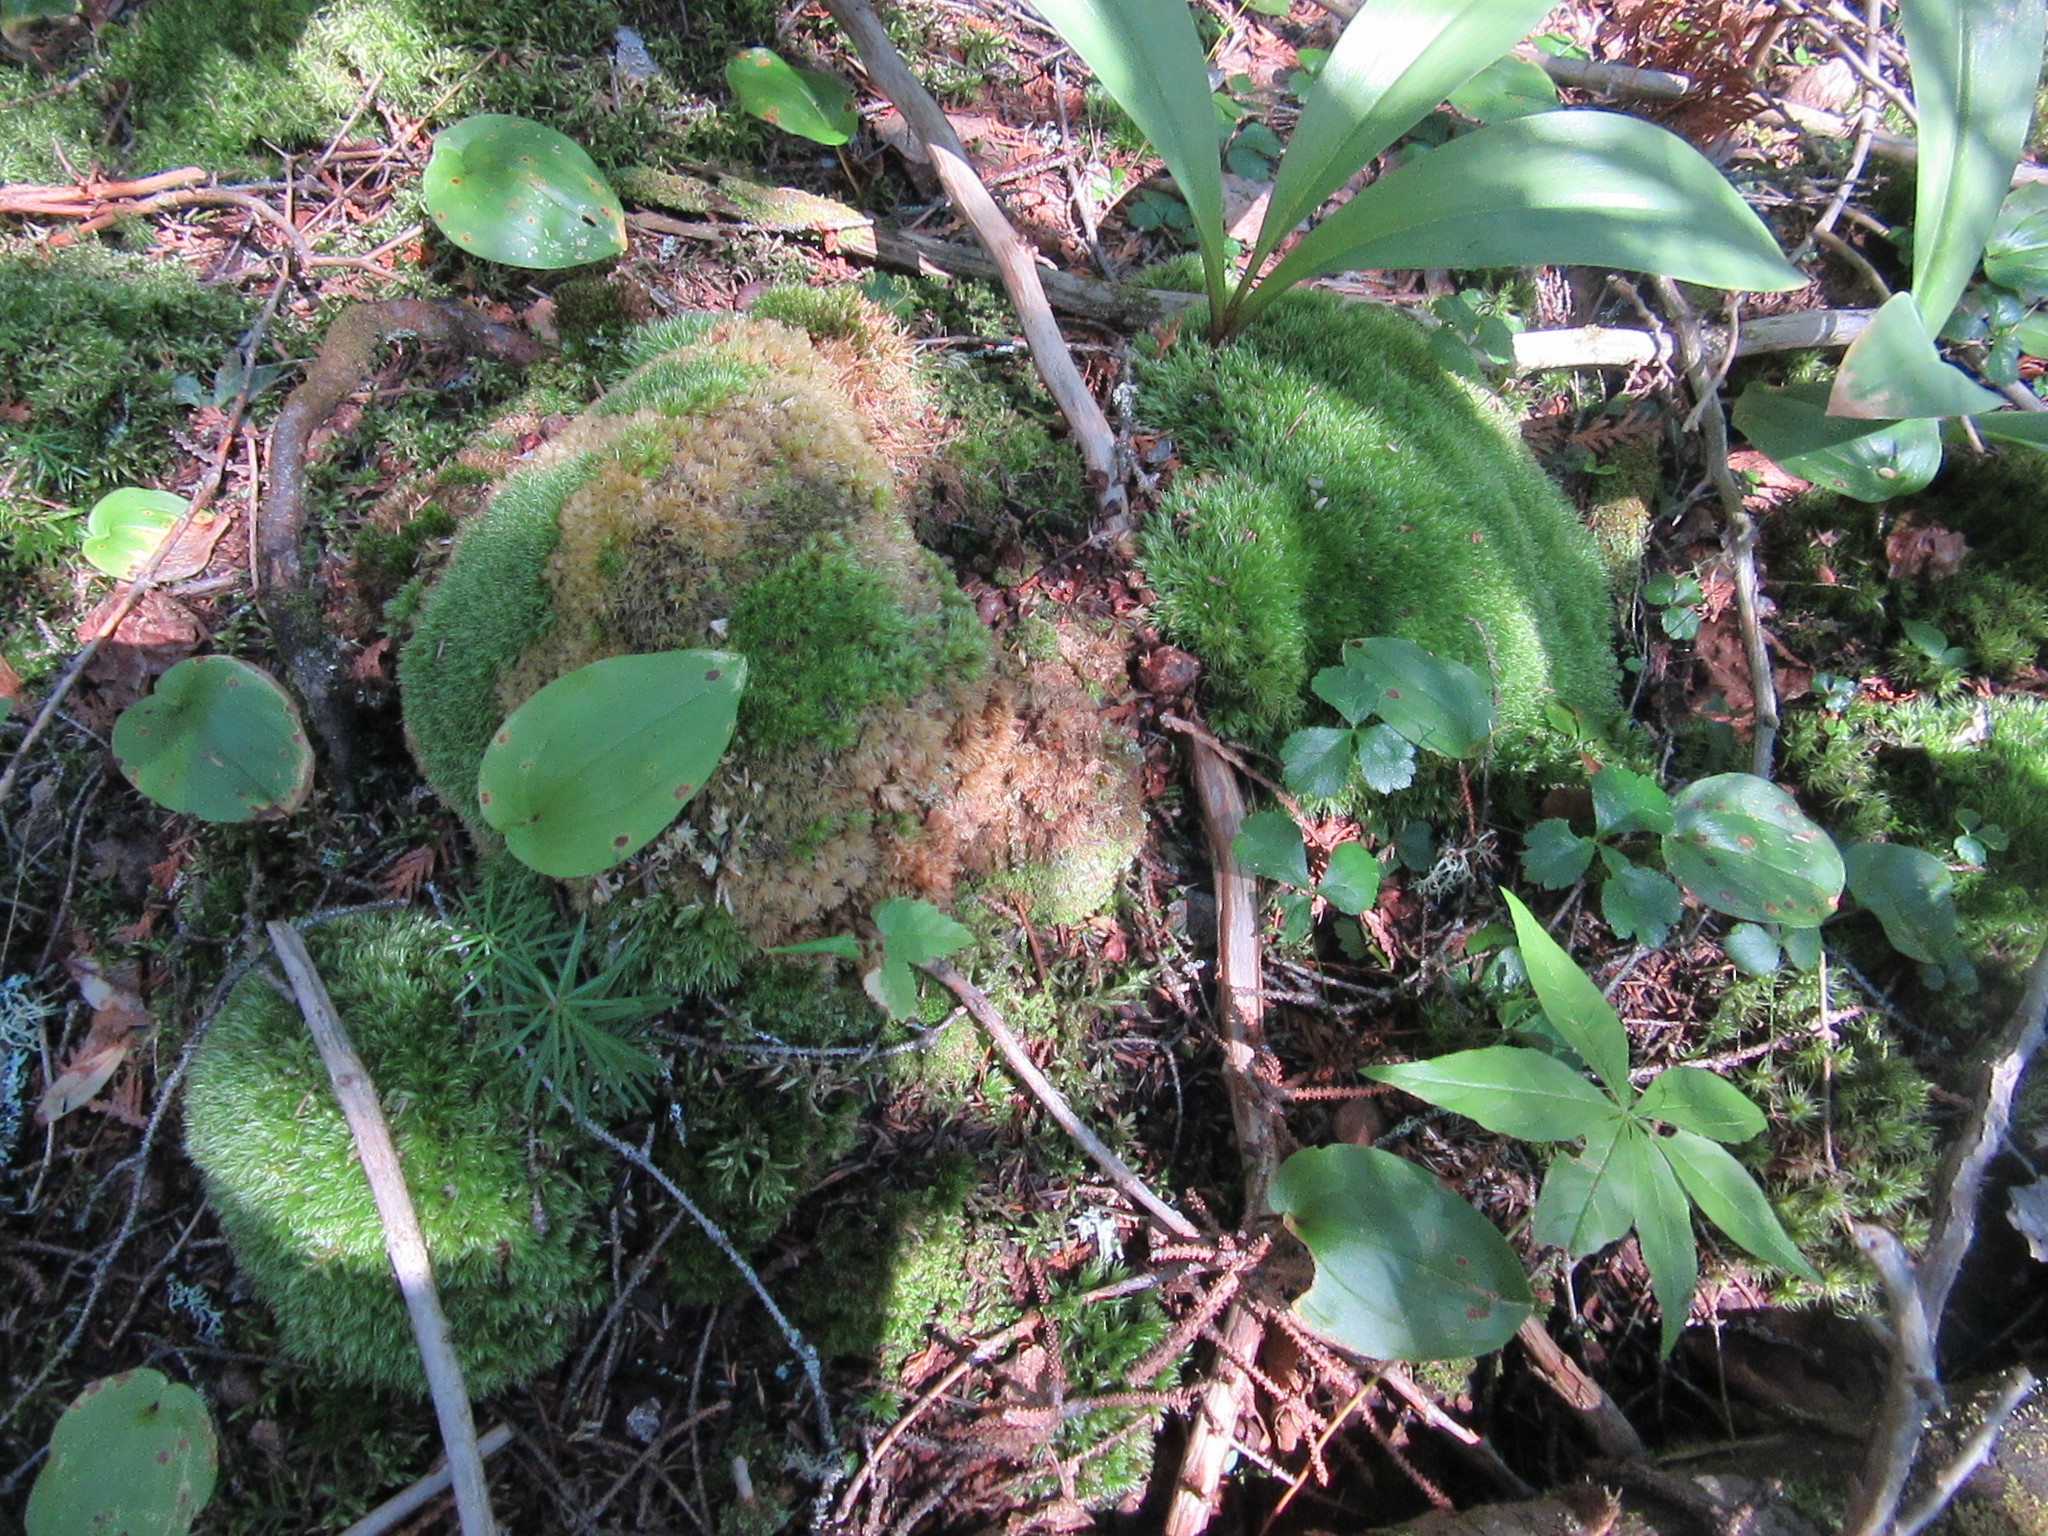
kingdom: Plantae
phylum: Bryophyta
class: Bryopsida
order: Dicranales
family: Leucobryaceae
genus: Leucobryum
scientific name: Leucobryum glaucum
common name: Large white-moss
